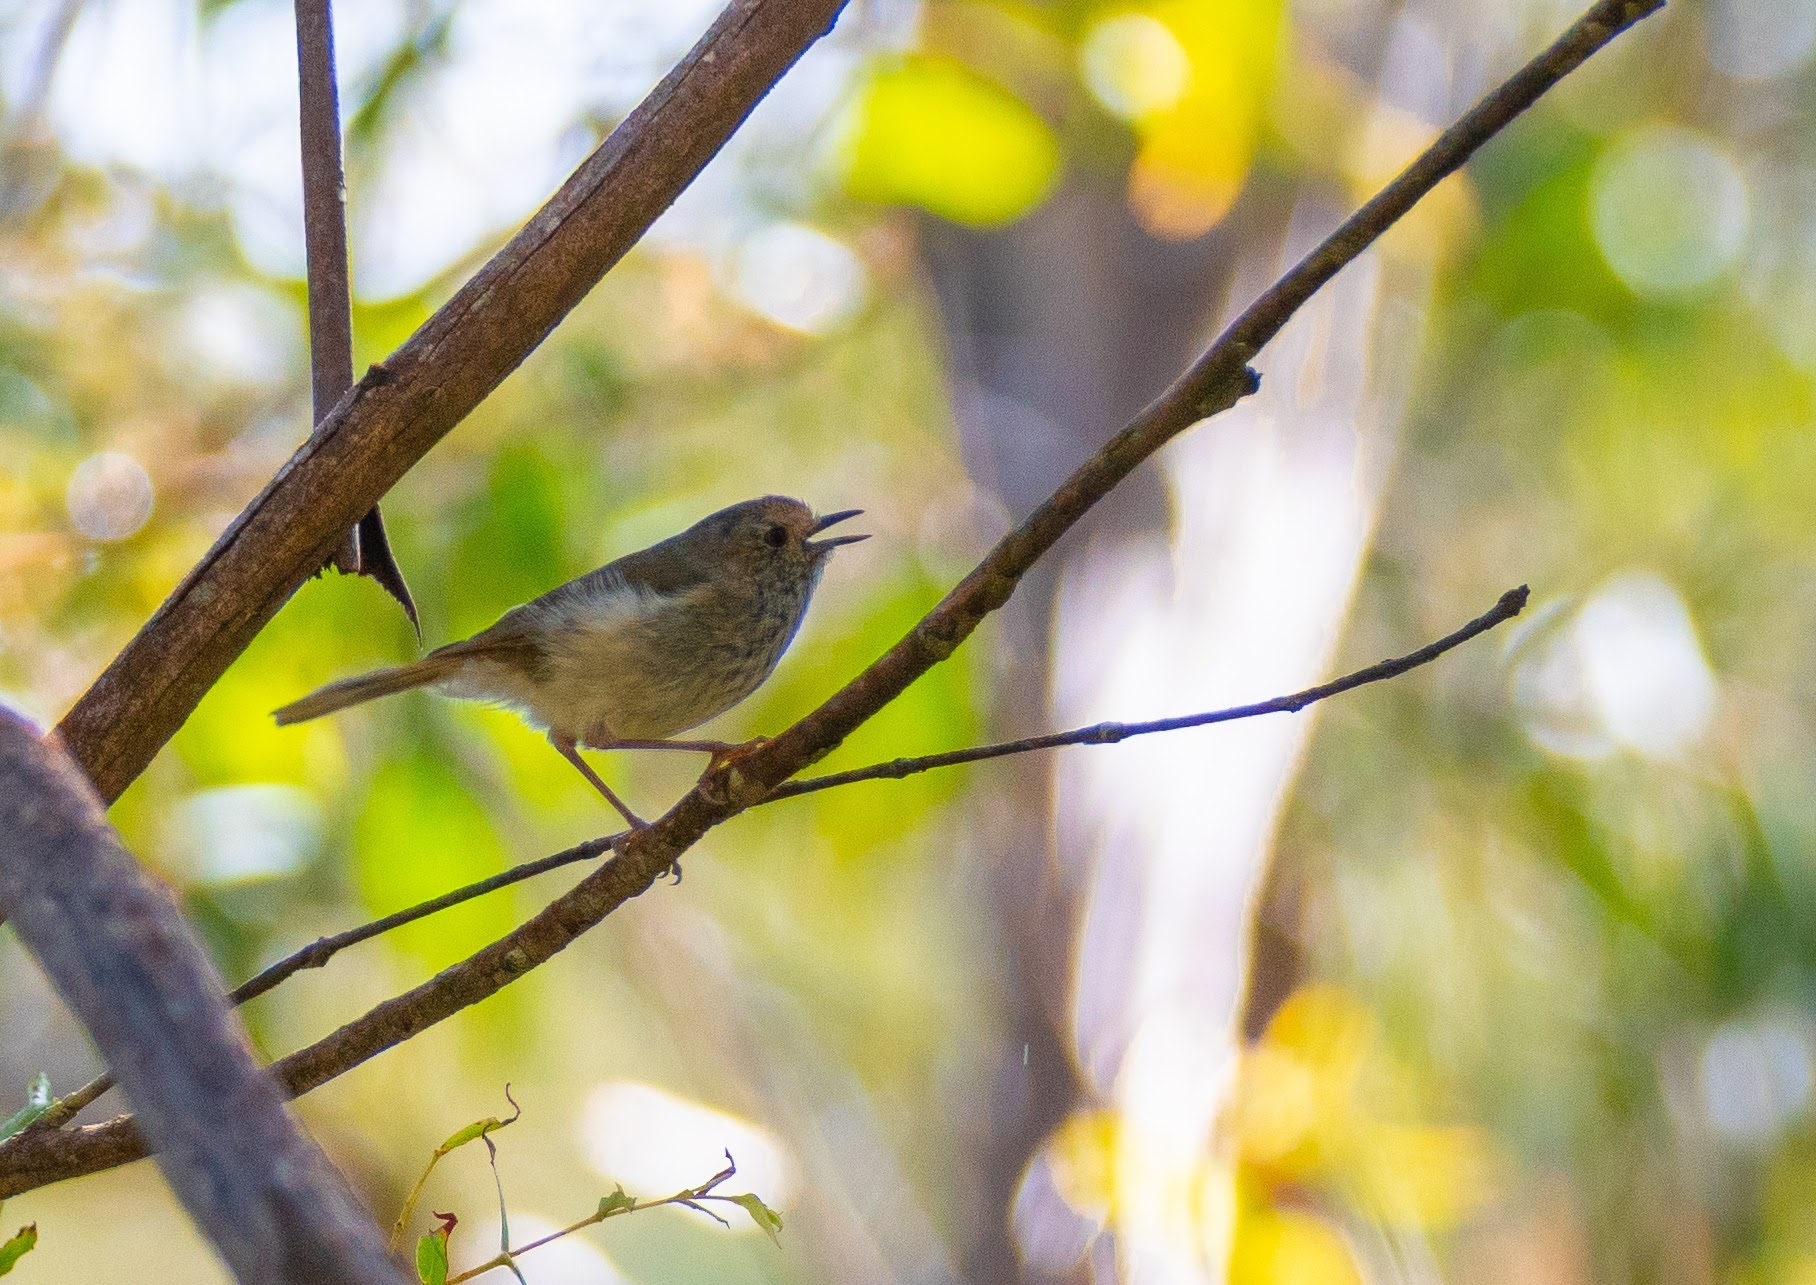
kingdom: Animalia
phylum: Chordata
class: Aves
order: Passeriformes
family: Acanthizidae
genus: Acanthiza
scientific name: Acanthiza pusilla
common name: Brown thornbill
